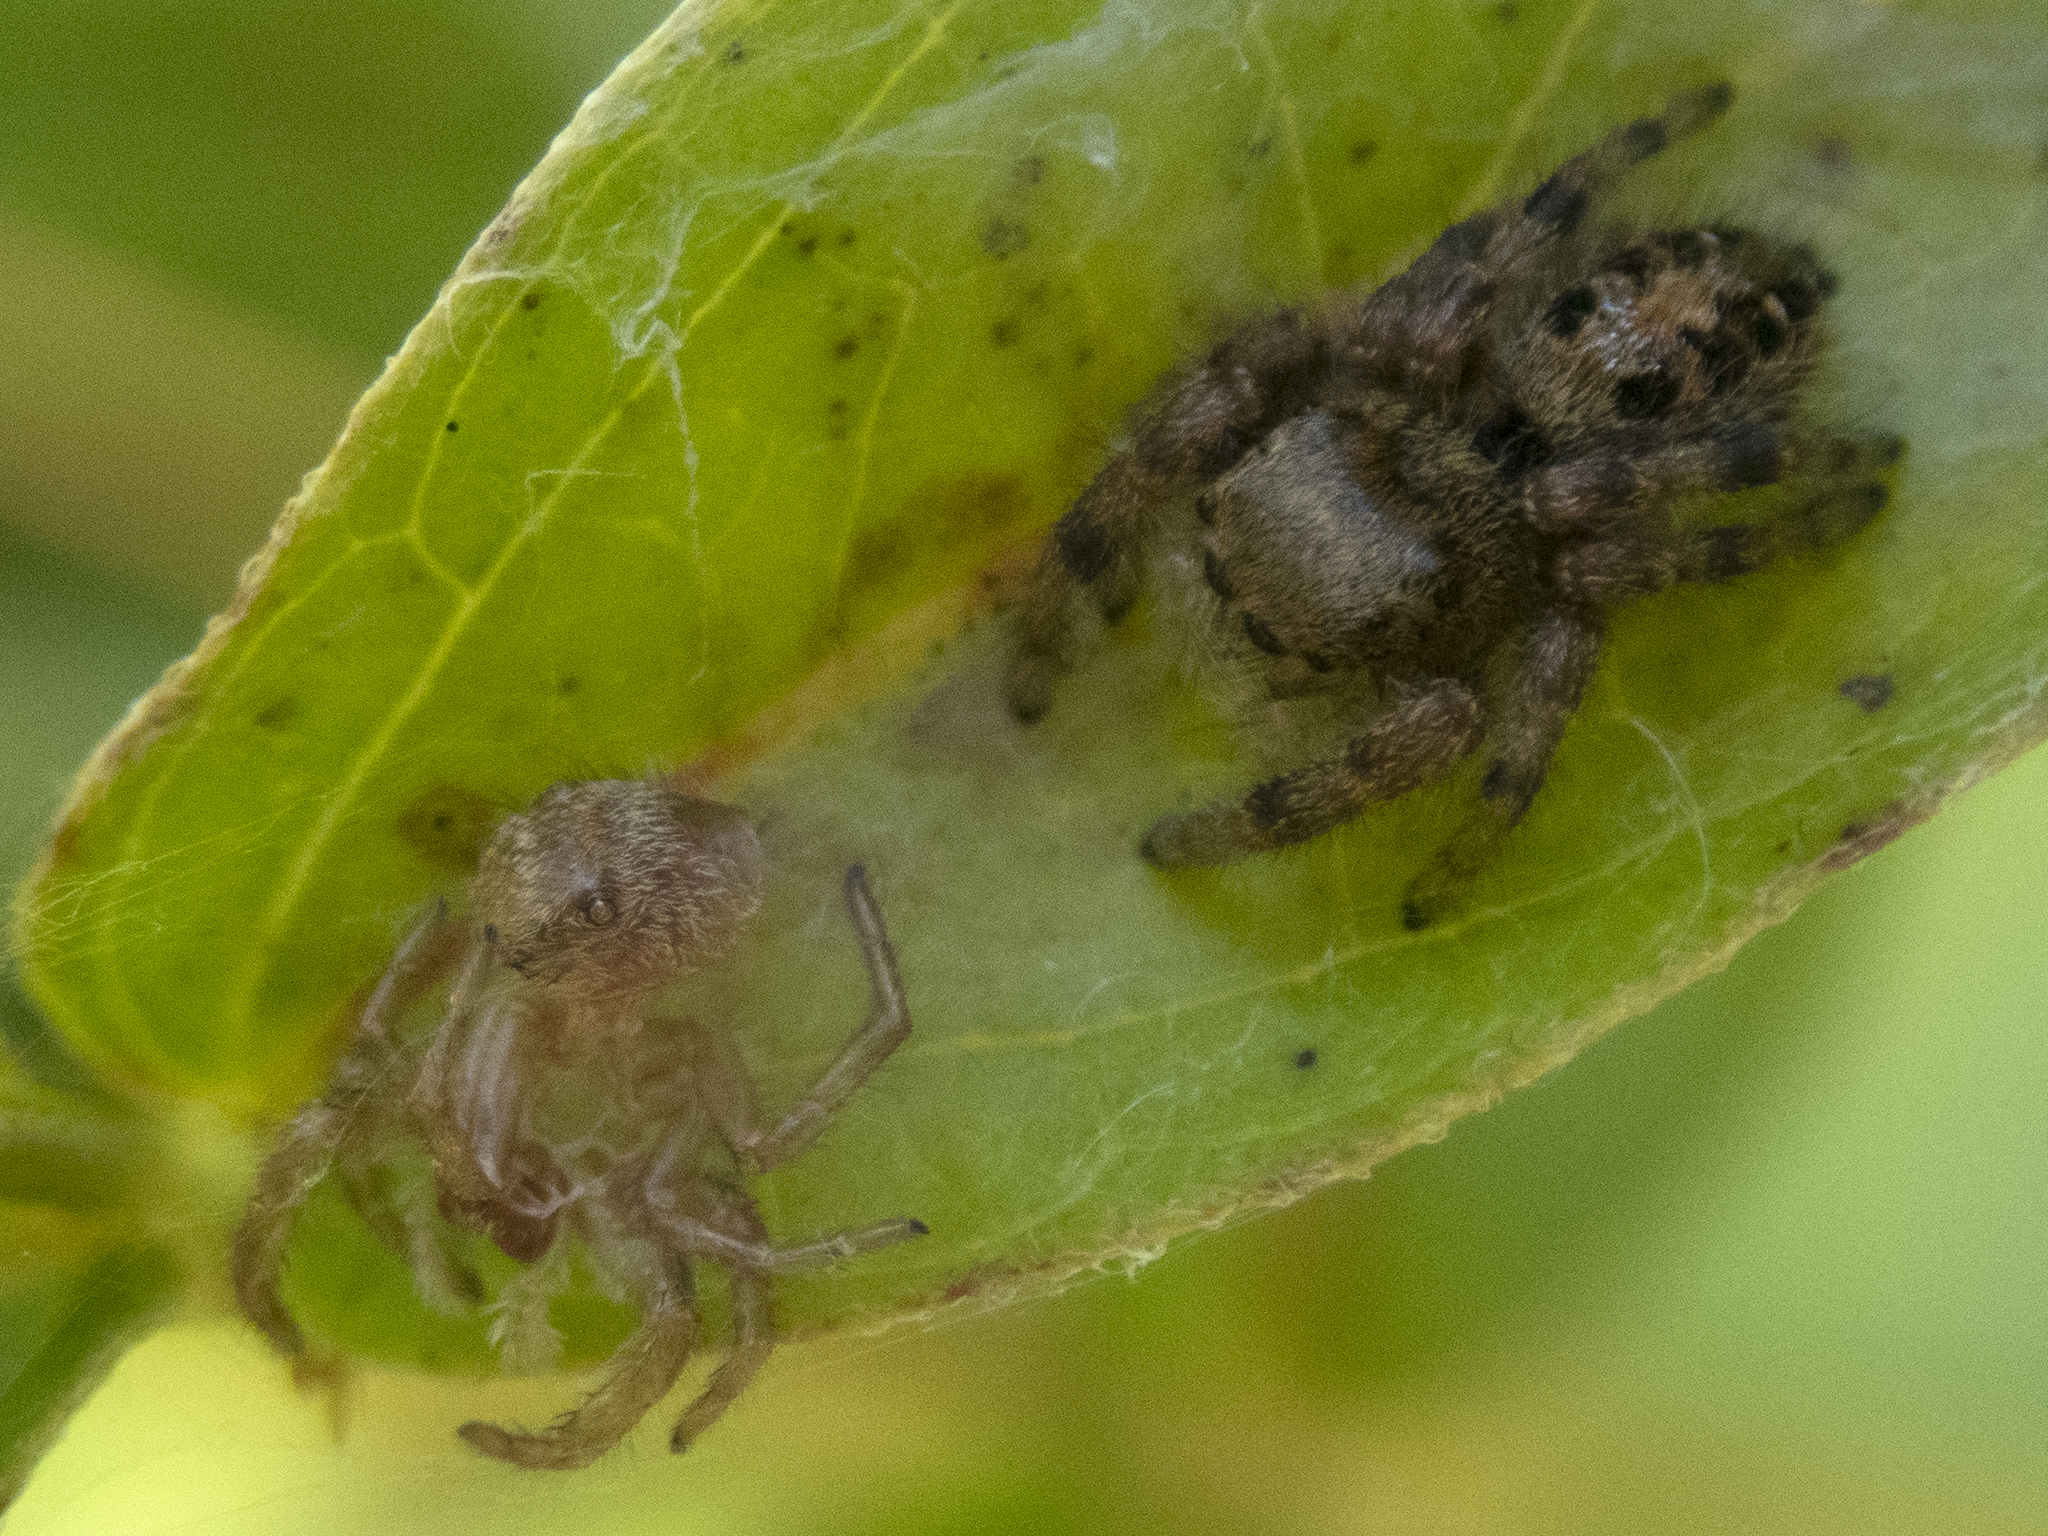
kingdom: Animalia
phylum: Arthropoda
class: Arachnida
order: Araneae
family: Salticidae
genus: Phidippus
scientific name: Phidippus princeps
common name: Grayish jumping spider
